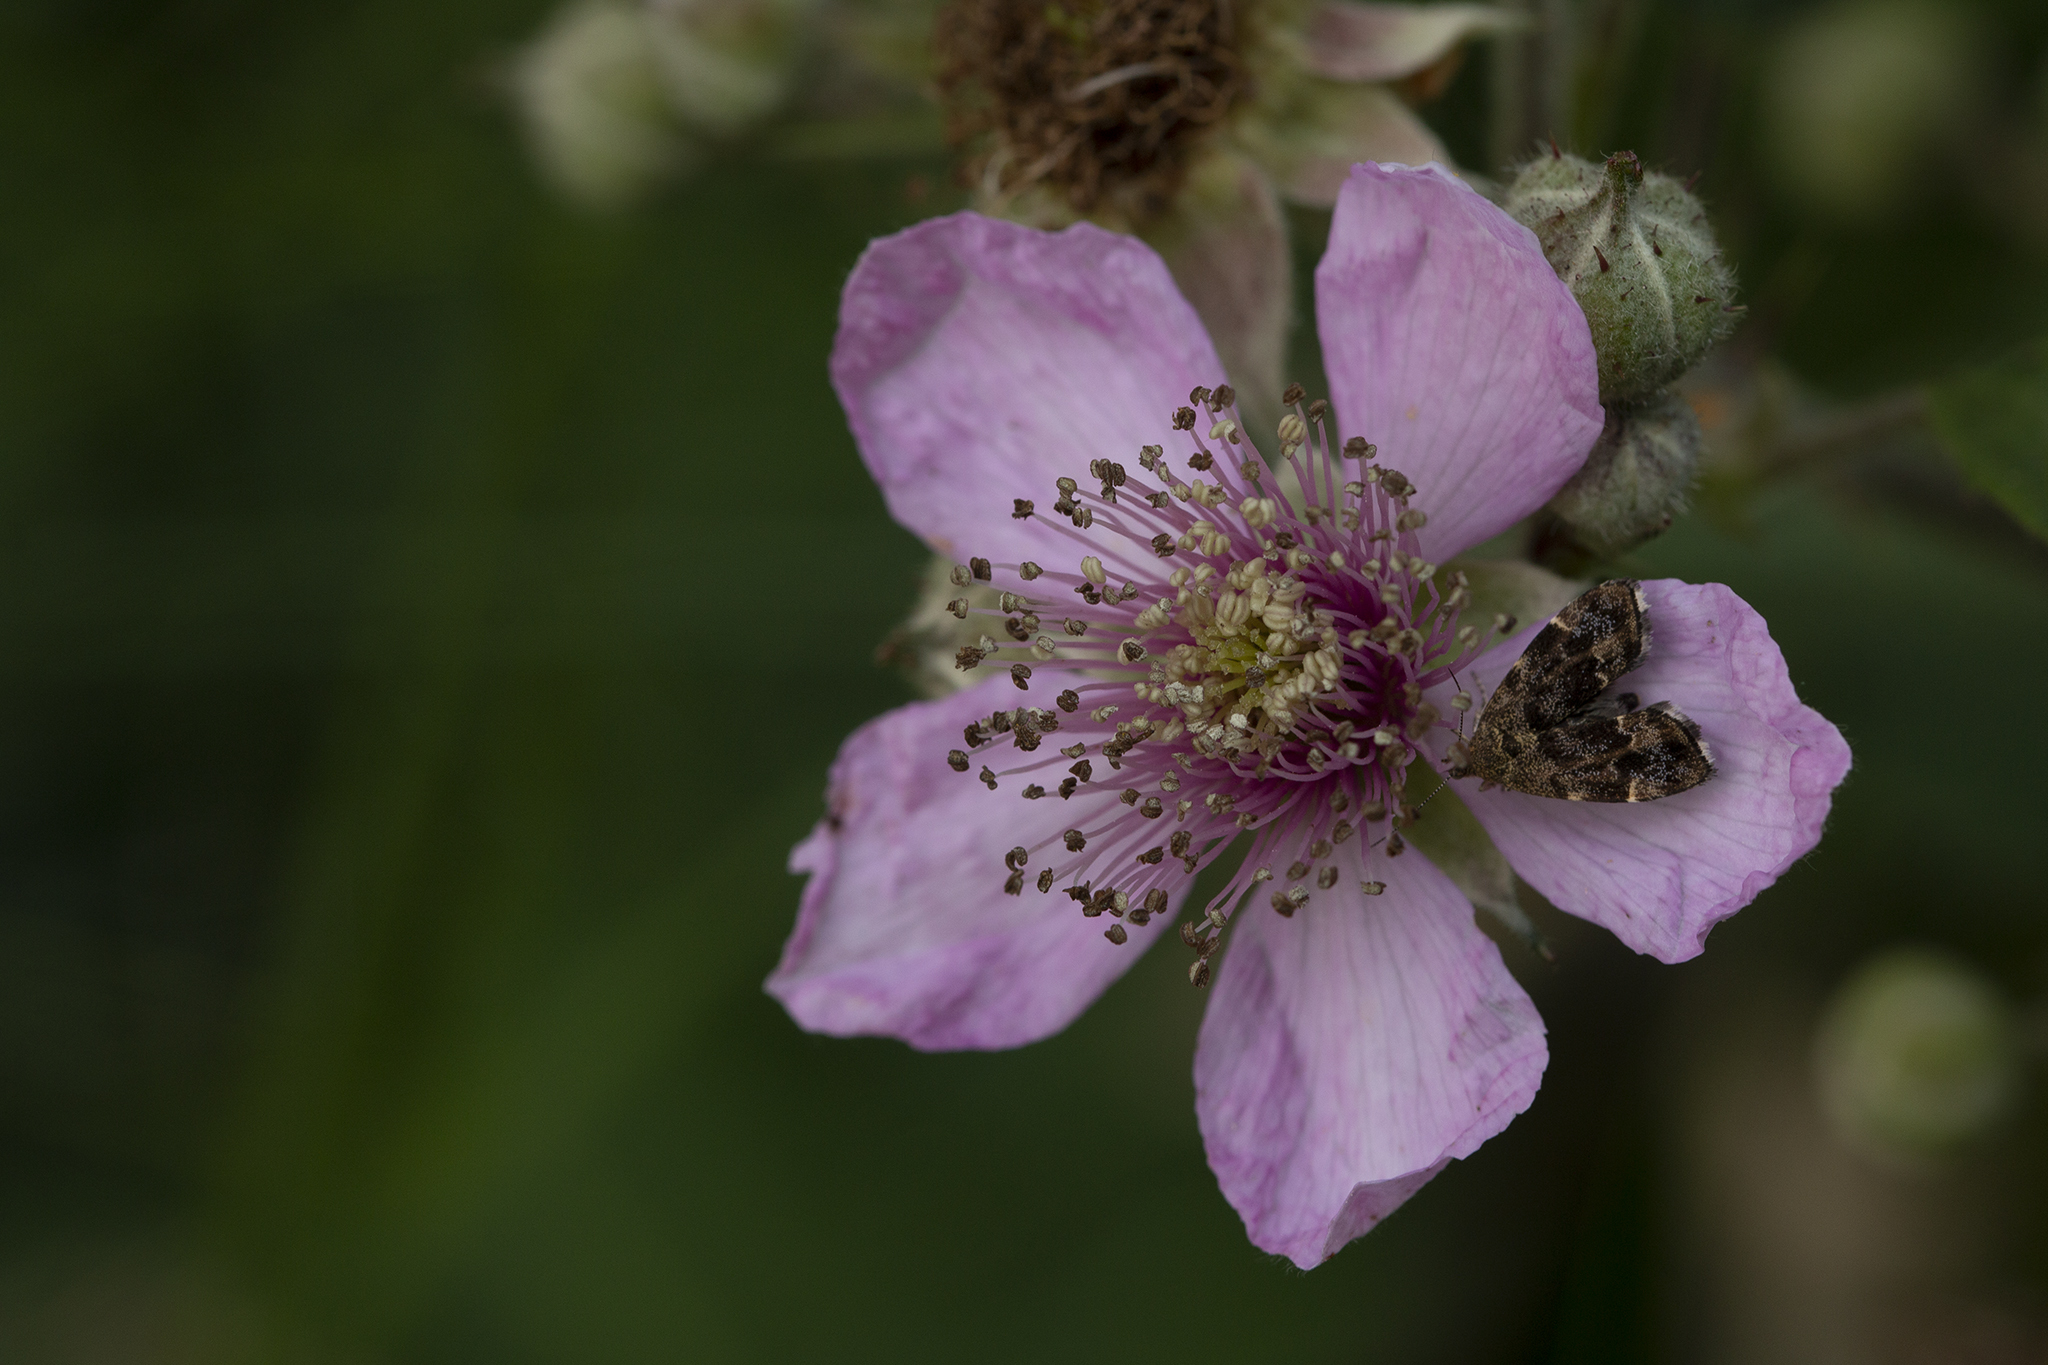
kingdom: Animalia
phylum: Arthropoda
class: Insecta
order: Lepidoptera
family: Choreutidae
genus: Anthophila
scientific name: Anthophila fabriciana
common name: Nettle-tap
